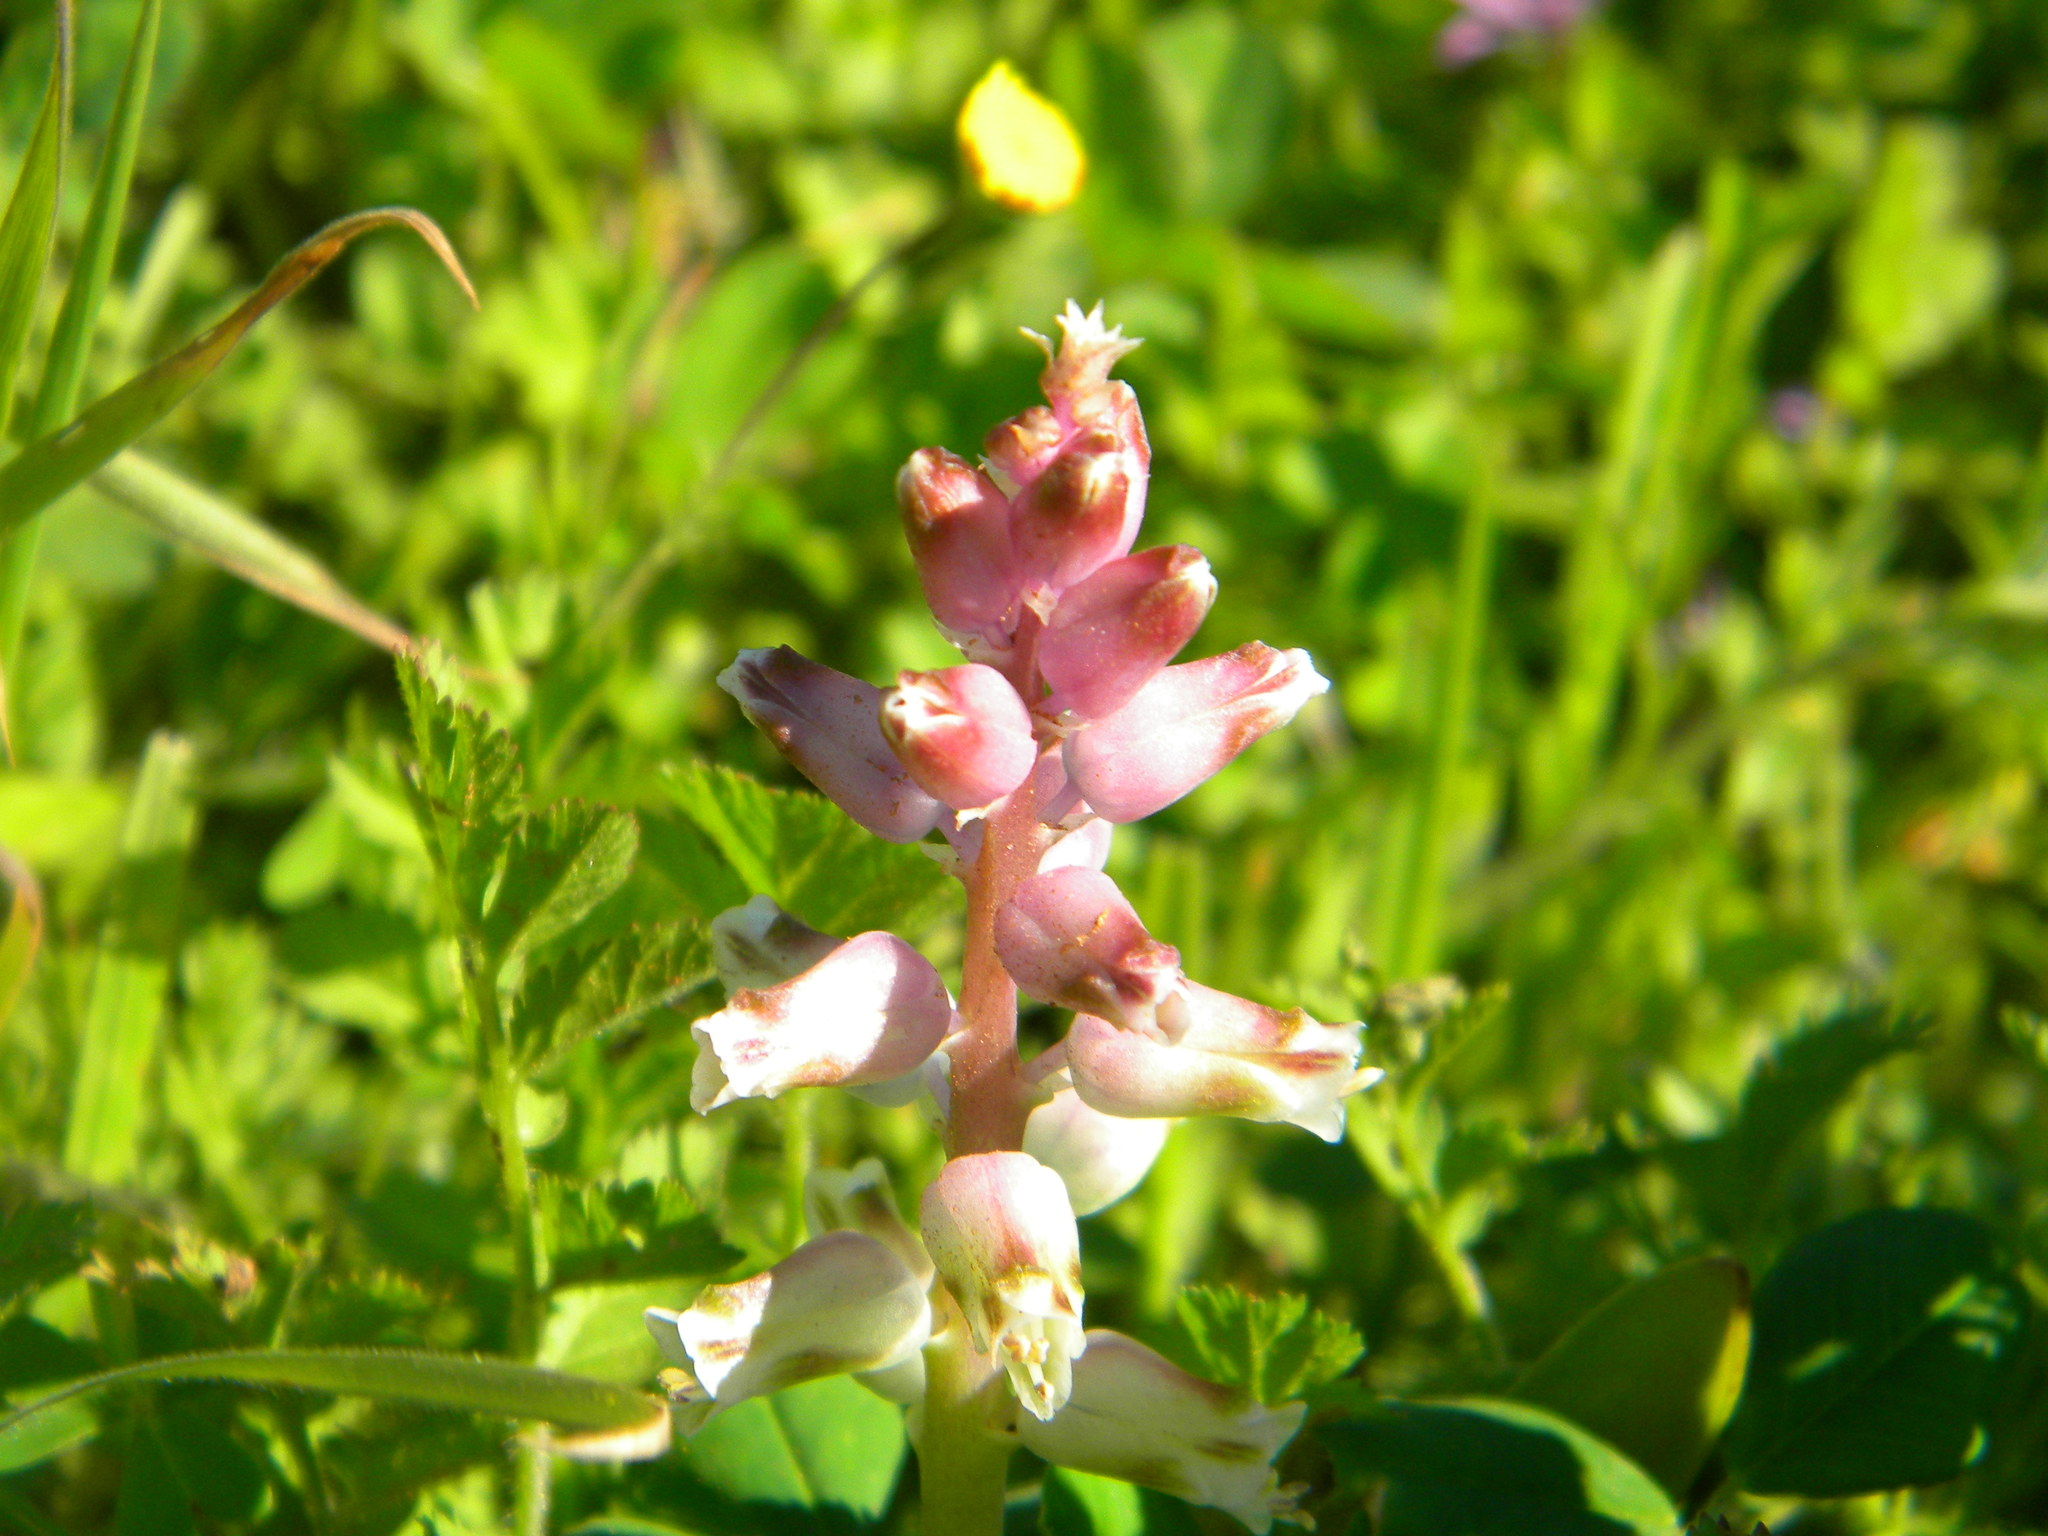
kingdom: Plantae
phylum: Tracheophyta
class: Liliopsida
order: Asparagales
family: Asparagaceae
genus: Lachenalia
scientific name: Lachenalia pallida
